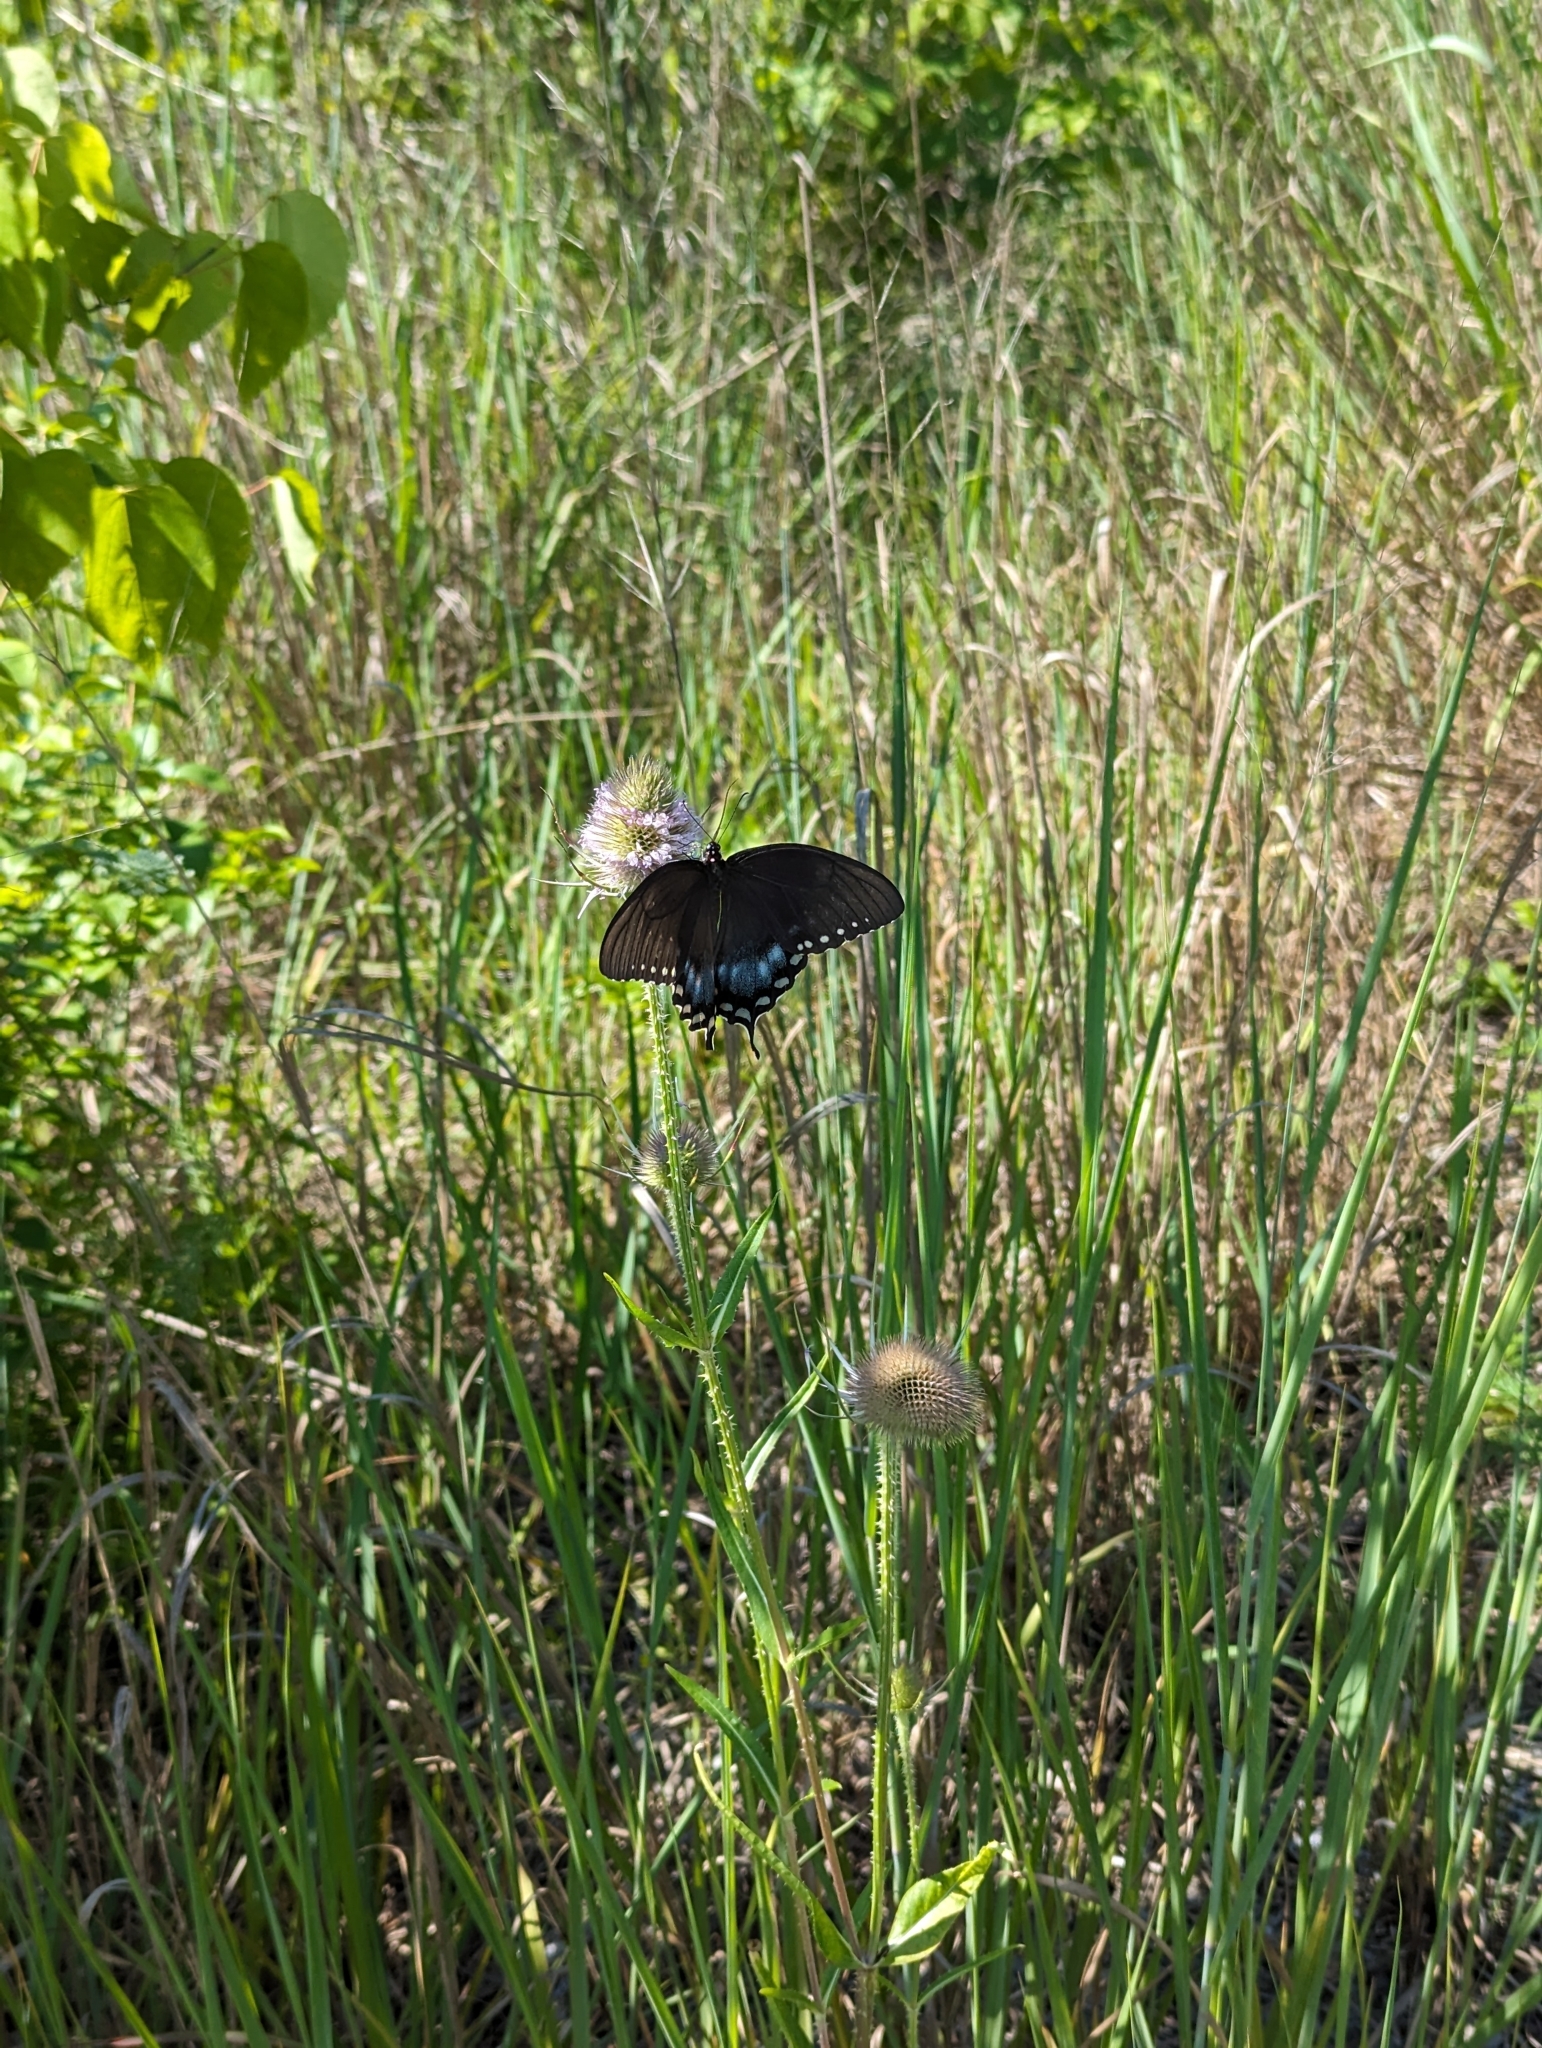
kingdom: Animalia
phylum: Arthropoda
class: Insecta
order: Lepidoptera
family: Papilionidae
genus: Papilio
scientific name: Papilio troilus
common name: Spicebush swallowtail
